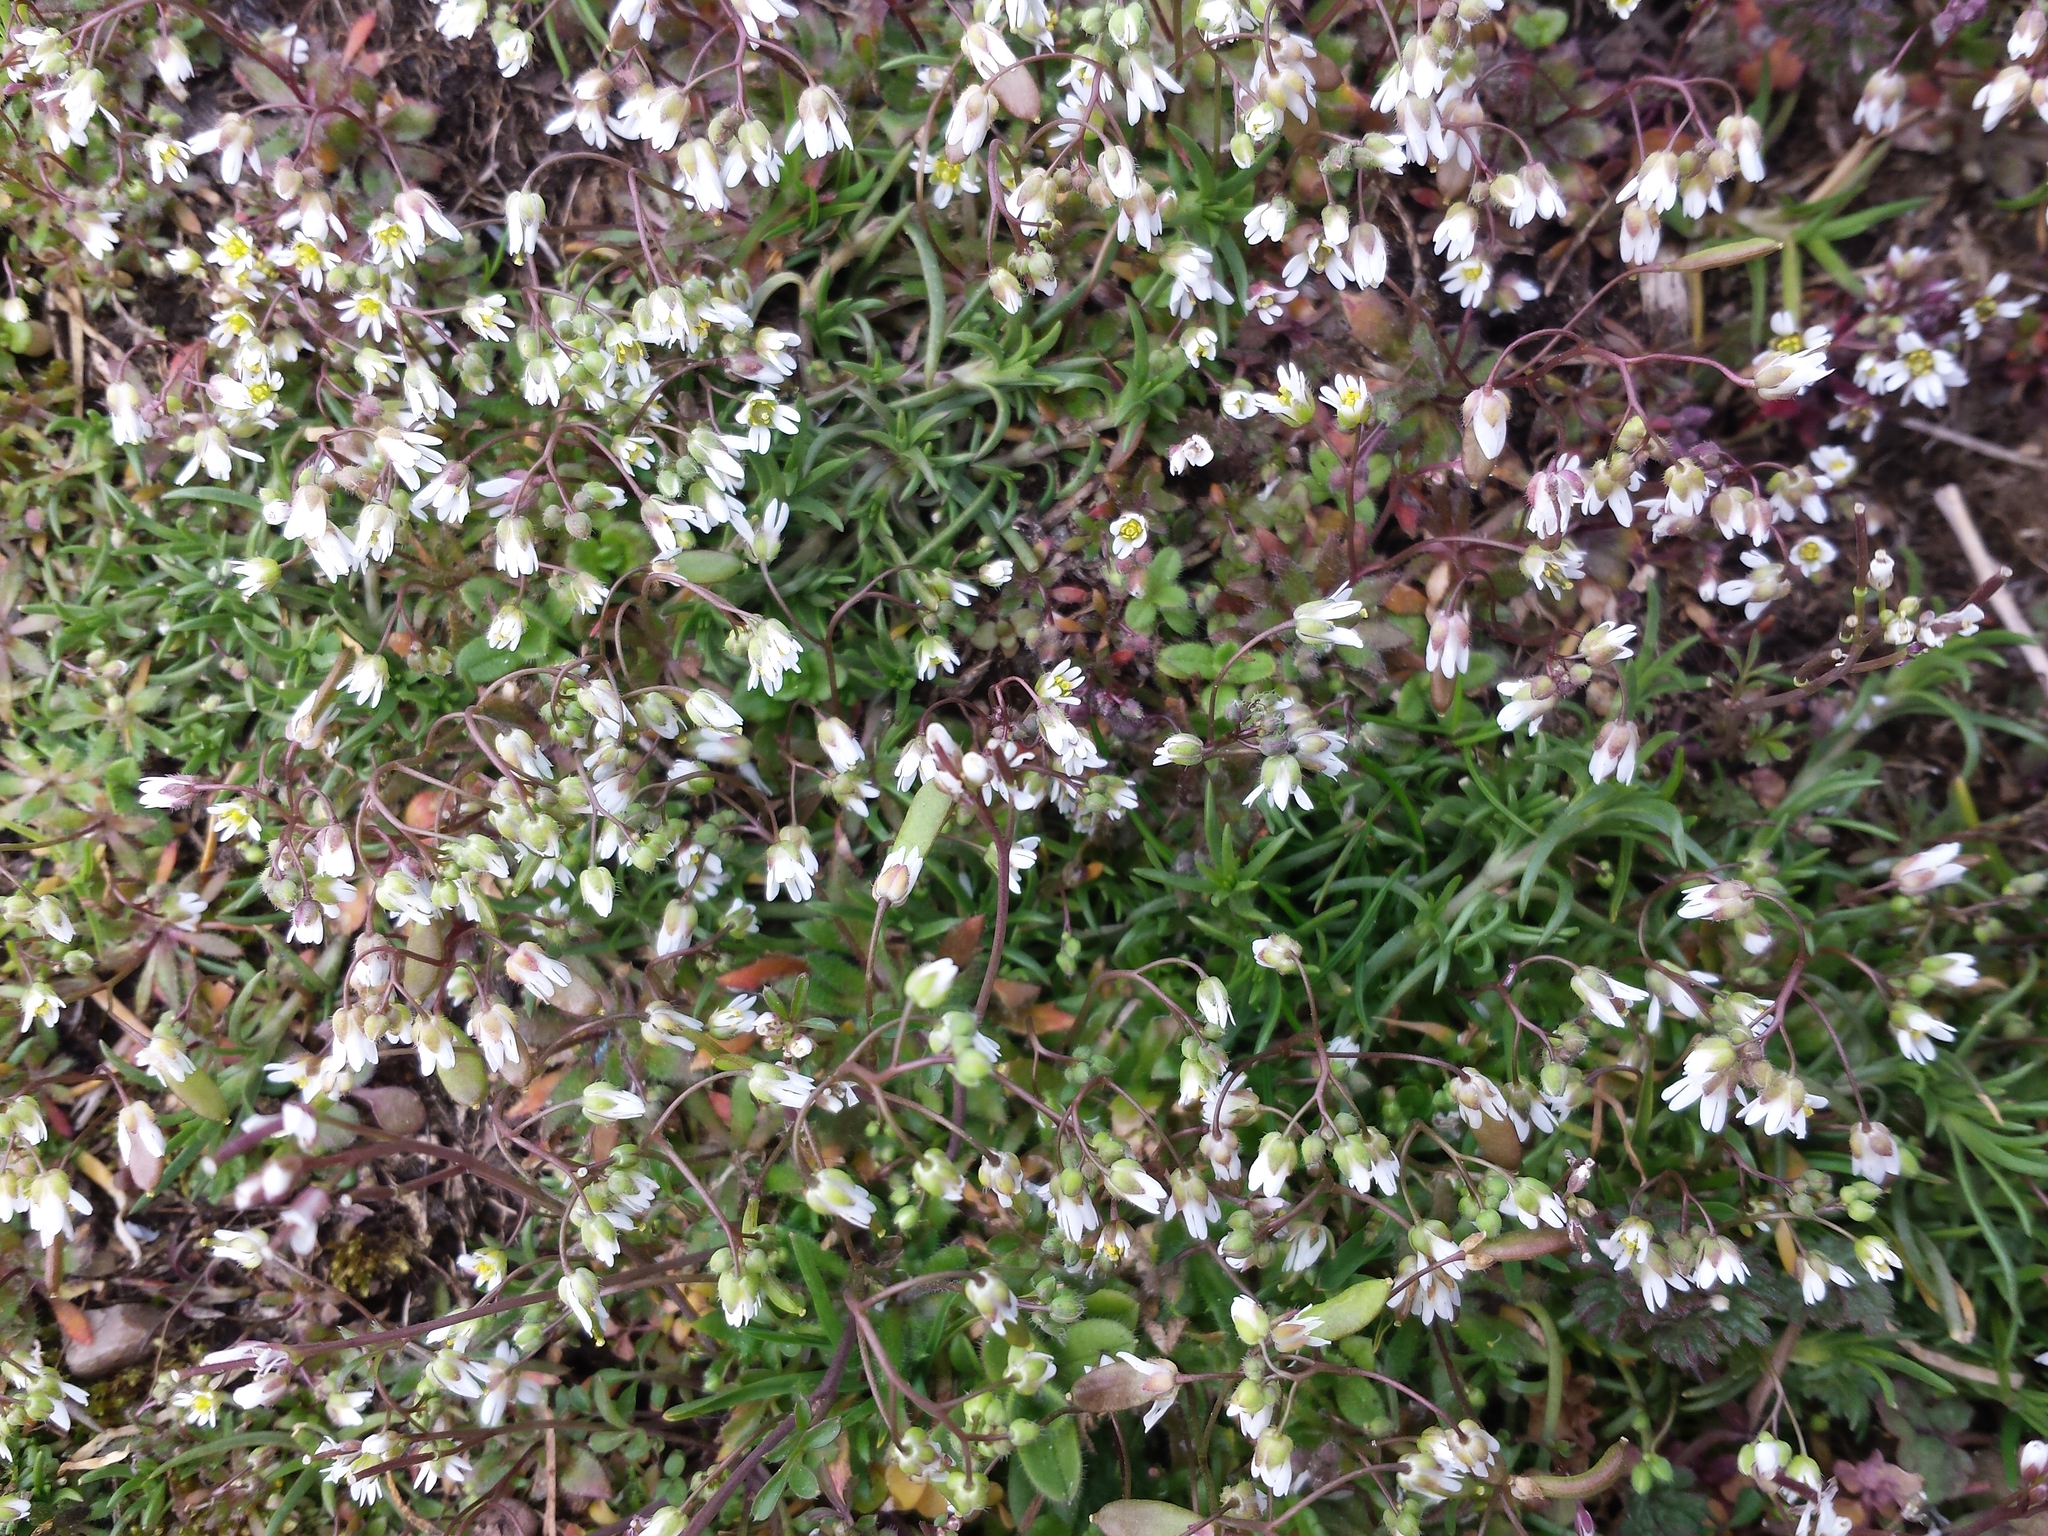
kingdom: Plantae
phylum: Tracheophyta
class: Magnoliopsida
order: Brassicales
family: Brassicaceae
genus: Draba
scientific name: Draba verna
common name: Spring draba
